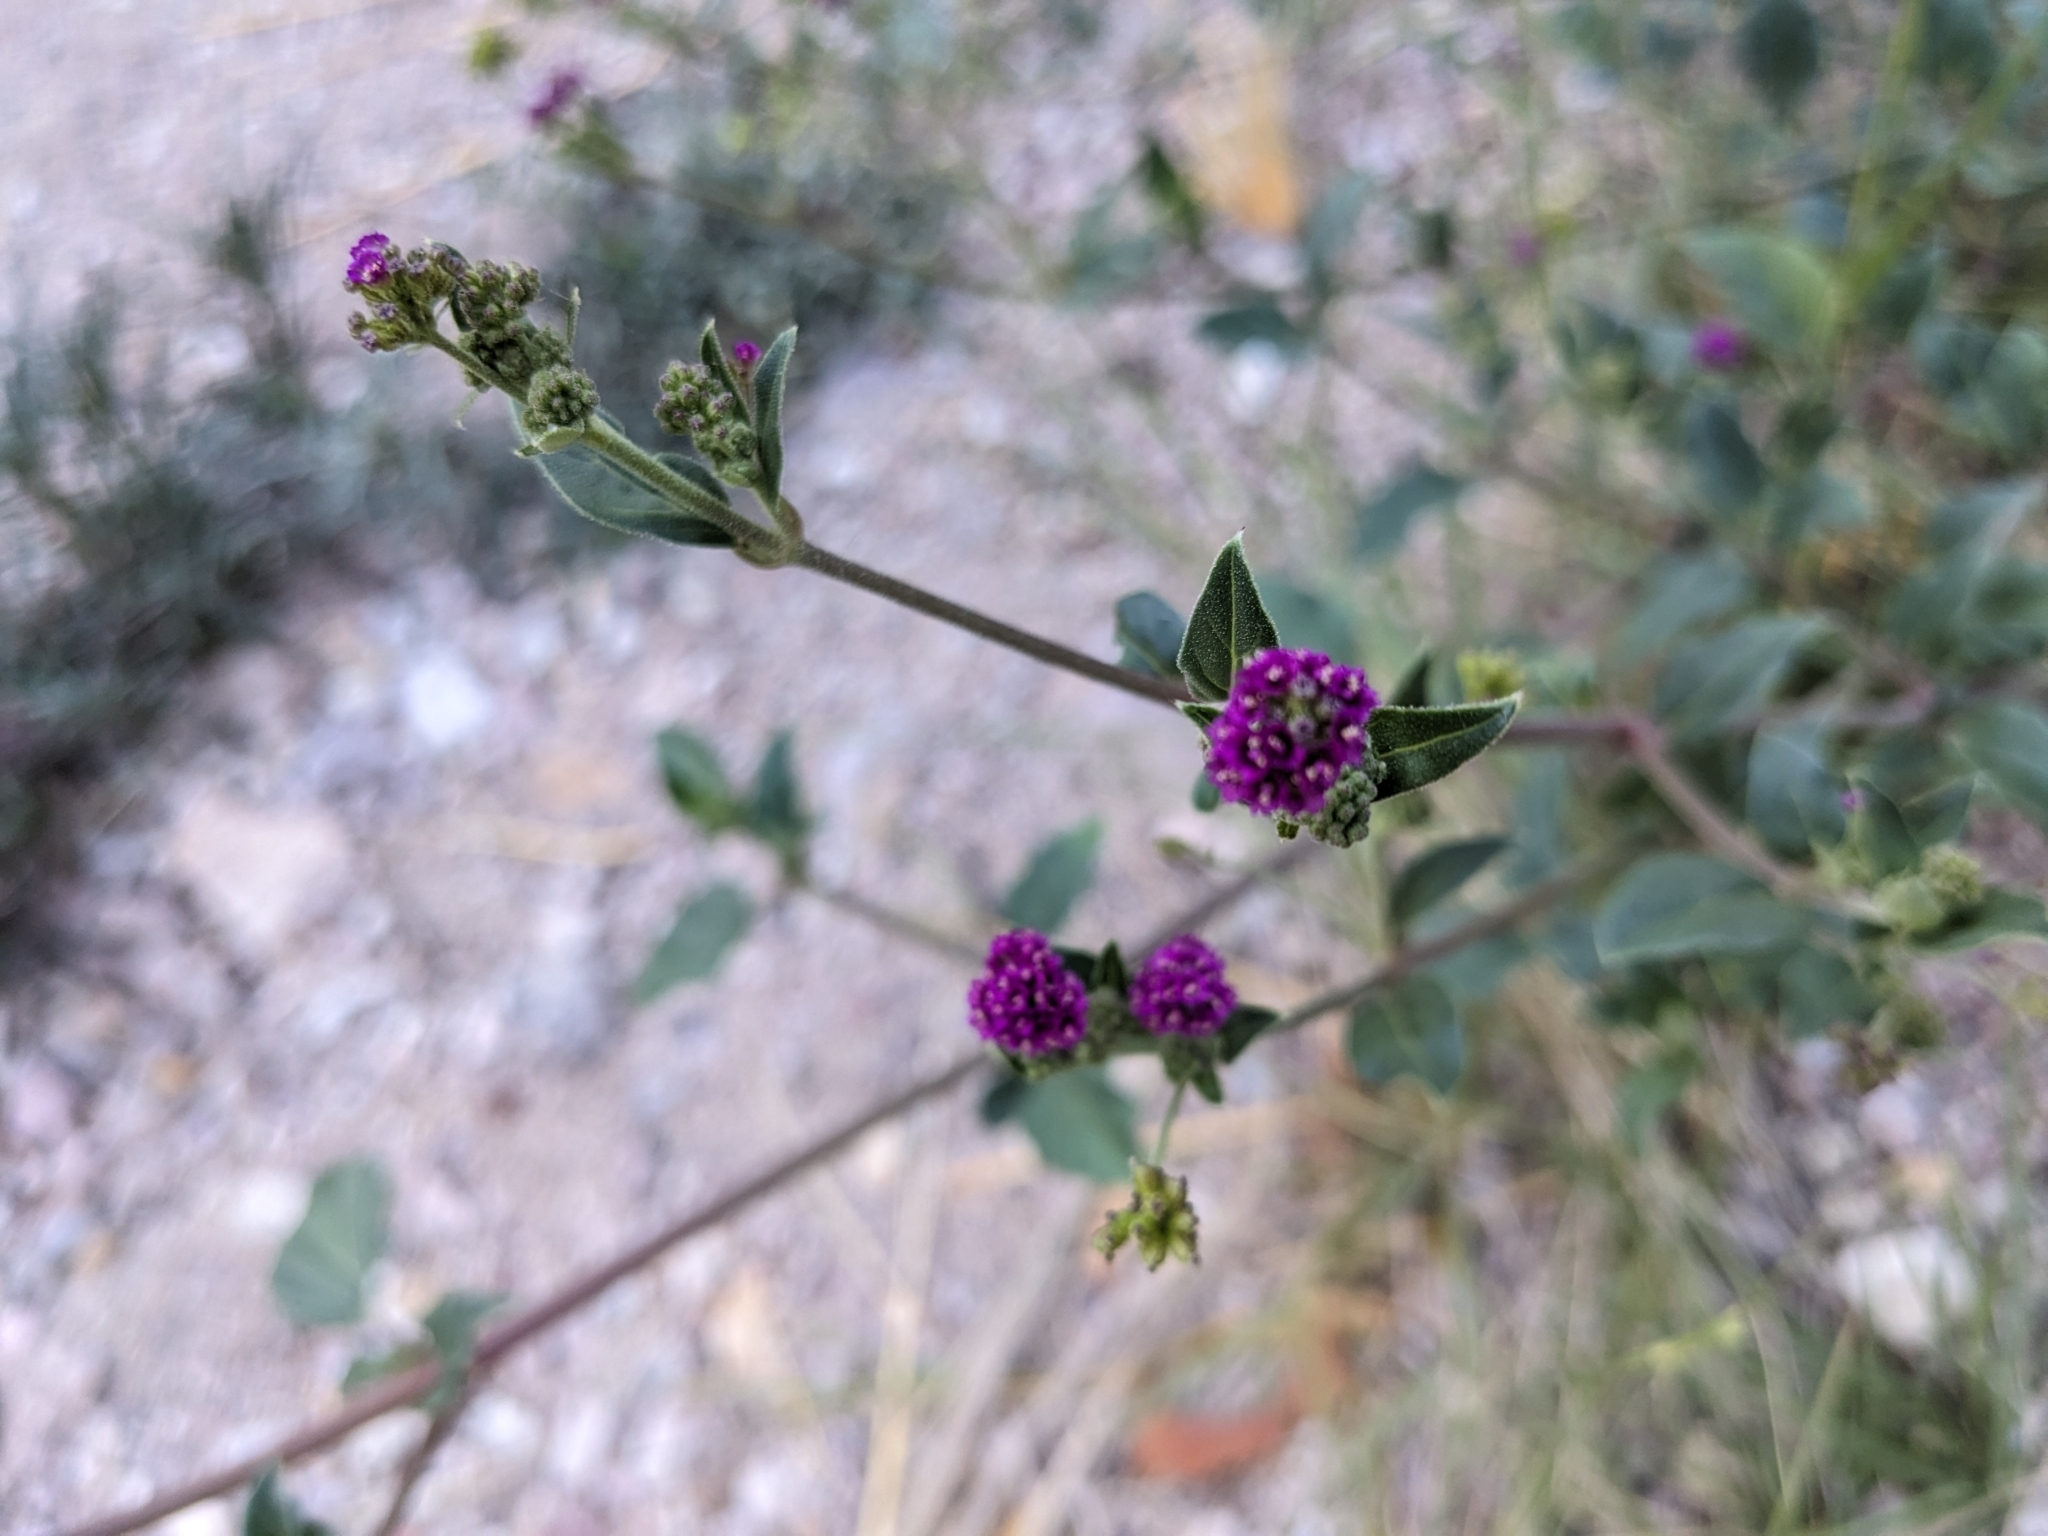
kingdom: Plantae
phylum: Tracheophyta
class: Magnoliopsida
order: Caryophyllales
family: Nyctaginaceae
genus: Boerhavia
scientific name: Boerhavia coccinea
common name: Scarlet spiderling
